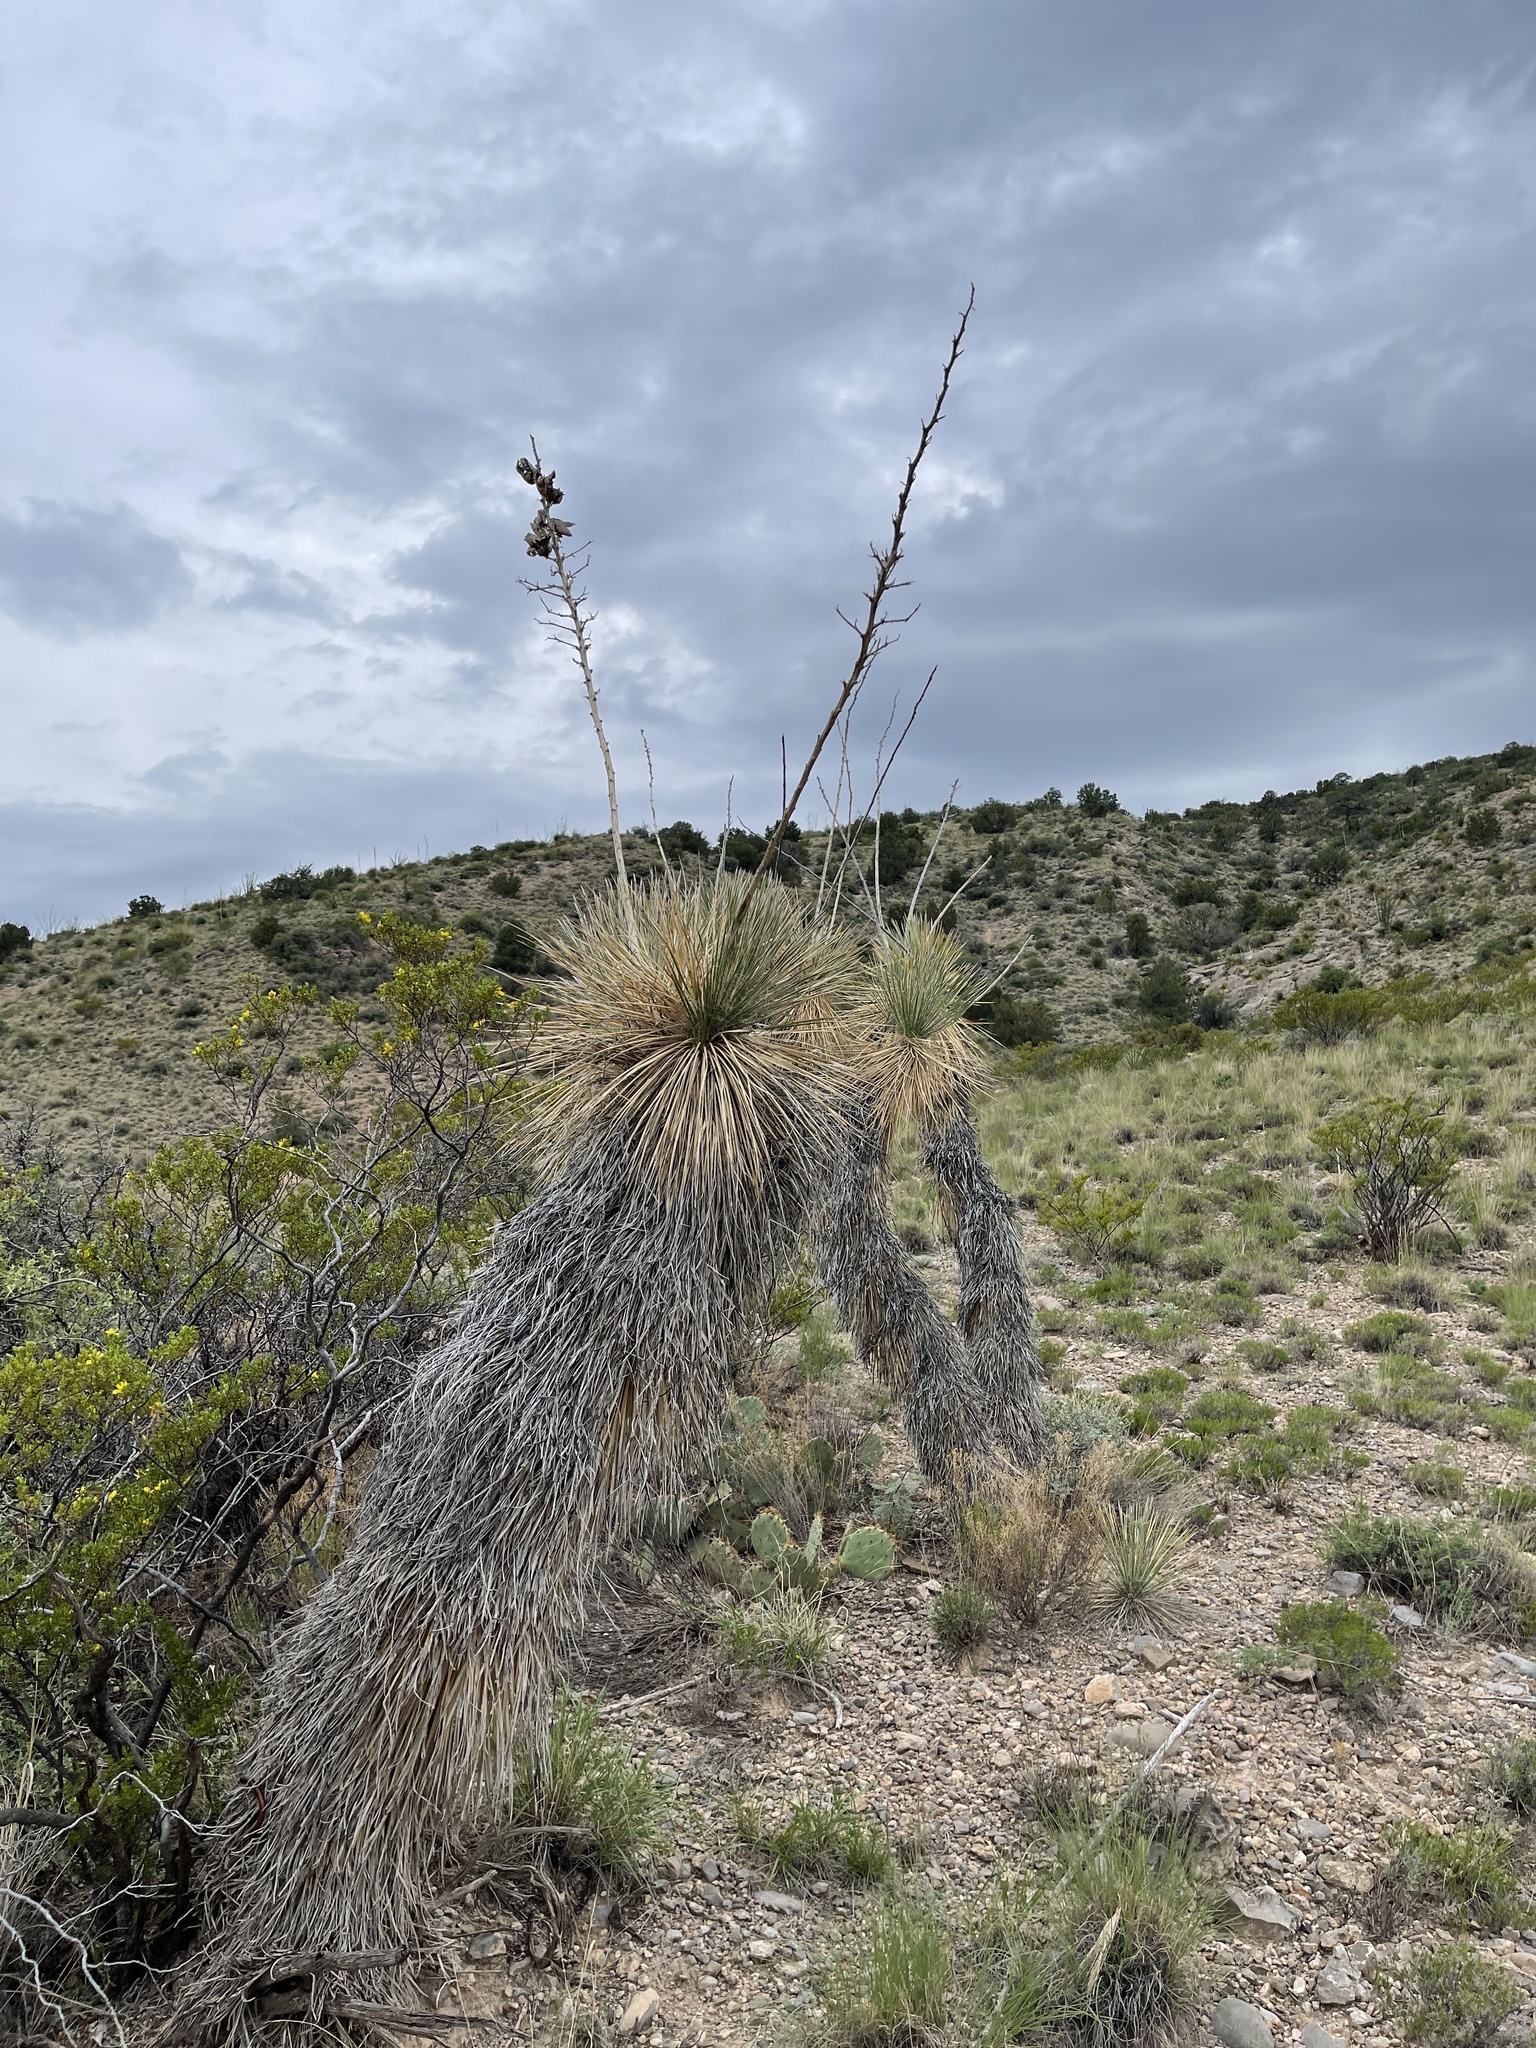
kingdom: Plantae
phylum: Tracheophyta
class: Liliopsida
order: Asparagales
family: Asparagaceae
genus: Yucca
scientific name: Yucca elata
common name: Palmella
